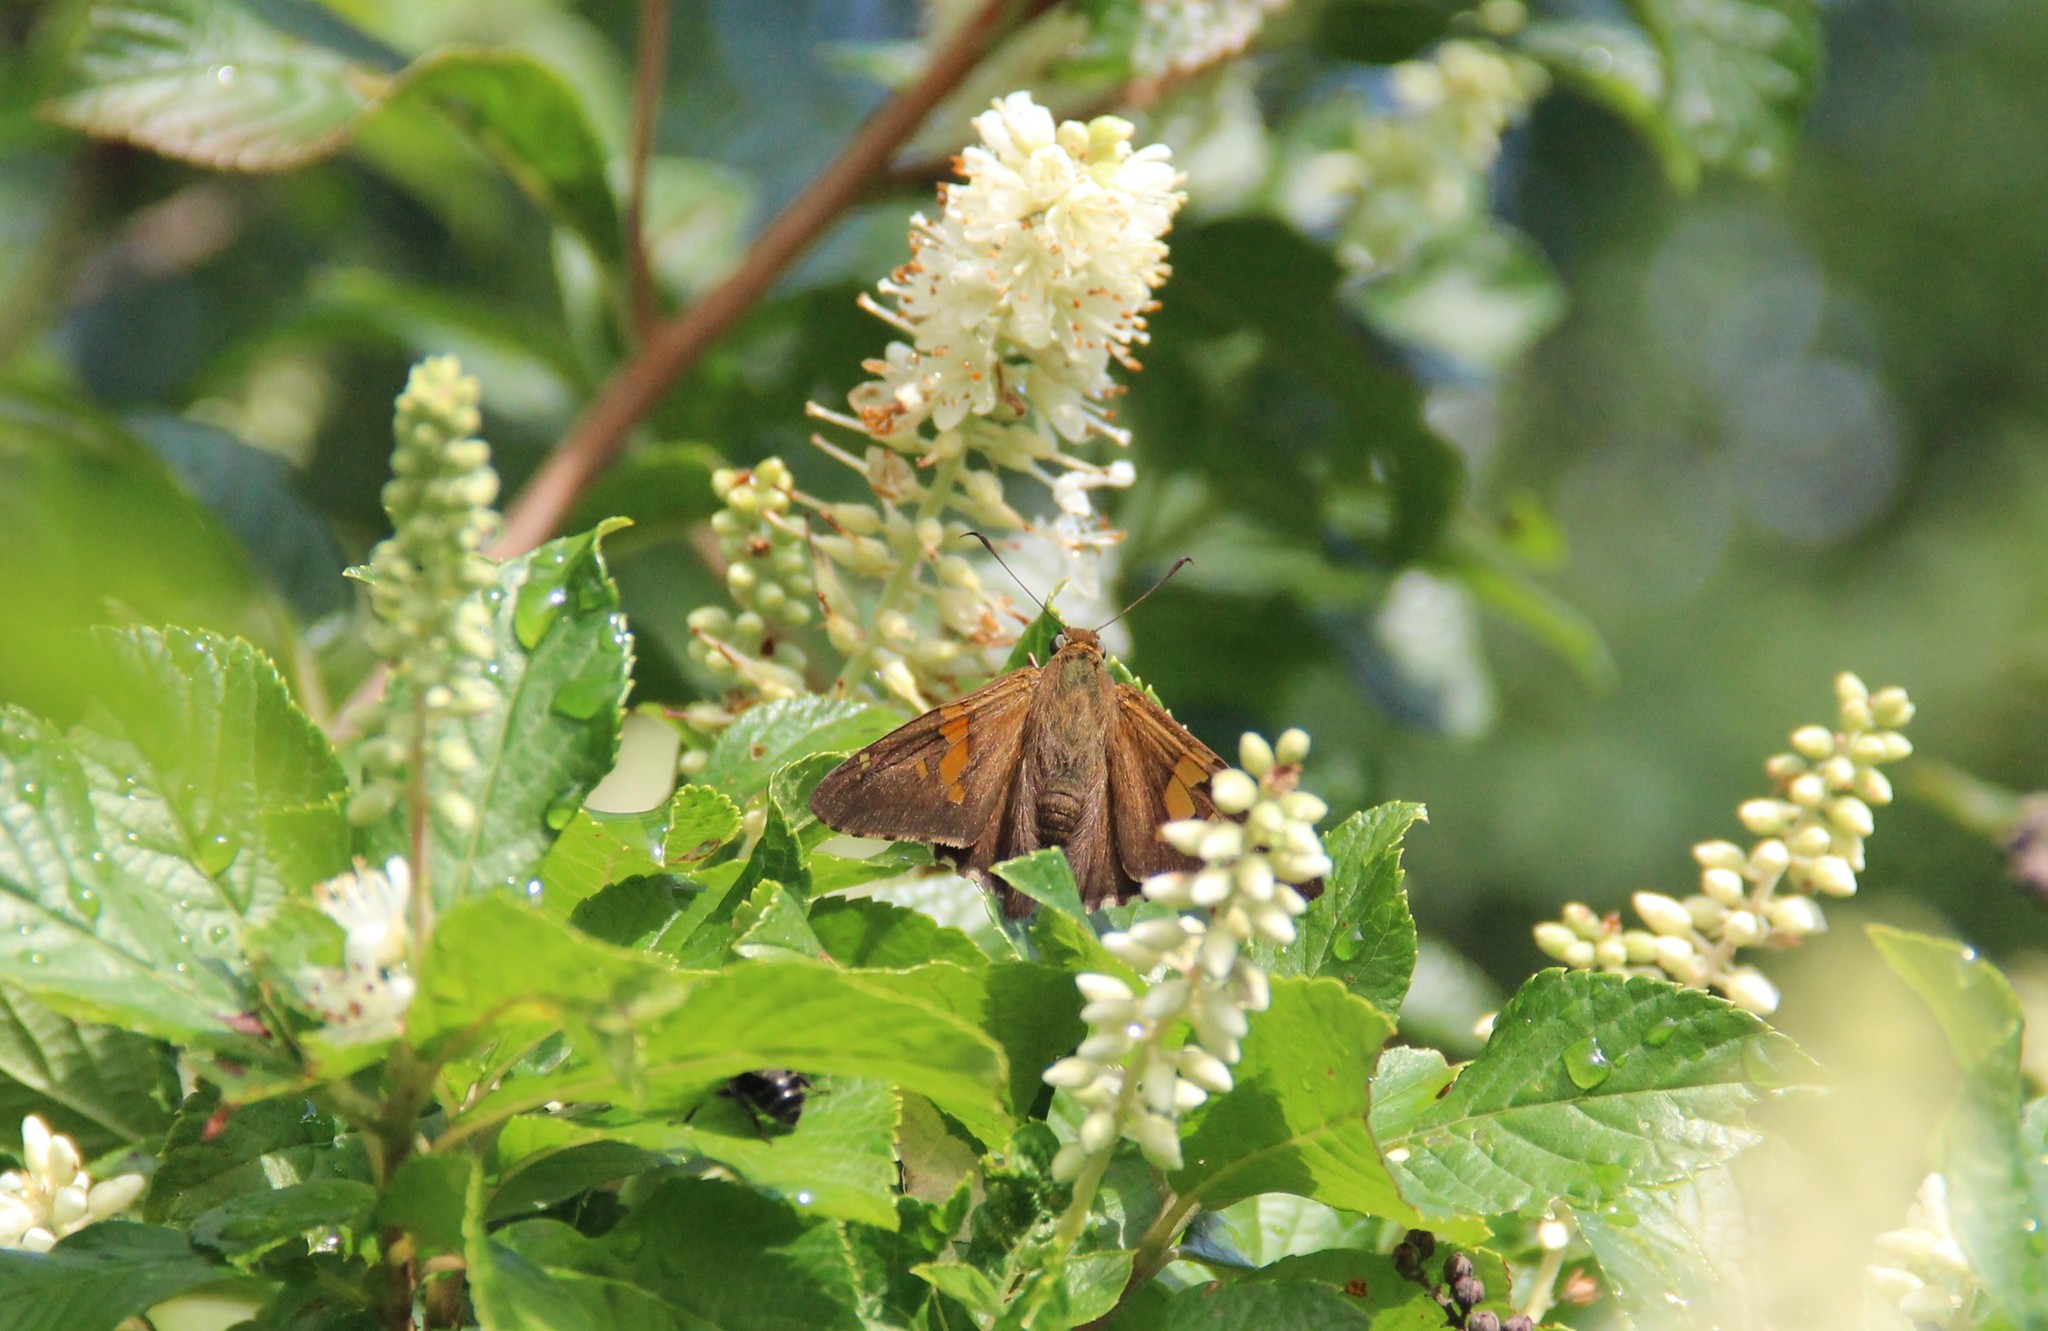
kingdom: Animalia
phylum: Arthropoda
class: Insecta
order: Lepidoptera
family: Hesperiidae
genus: Epargyreus
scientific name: Epargyreus clarus
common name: Silver-spotted skipper
